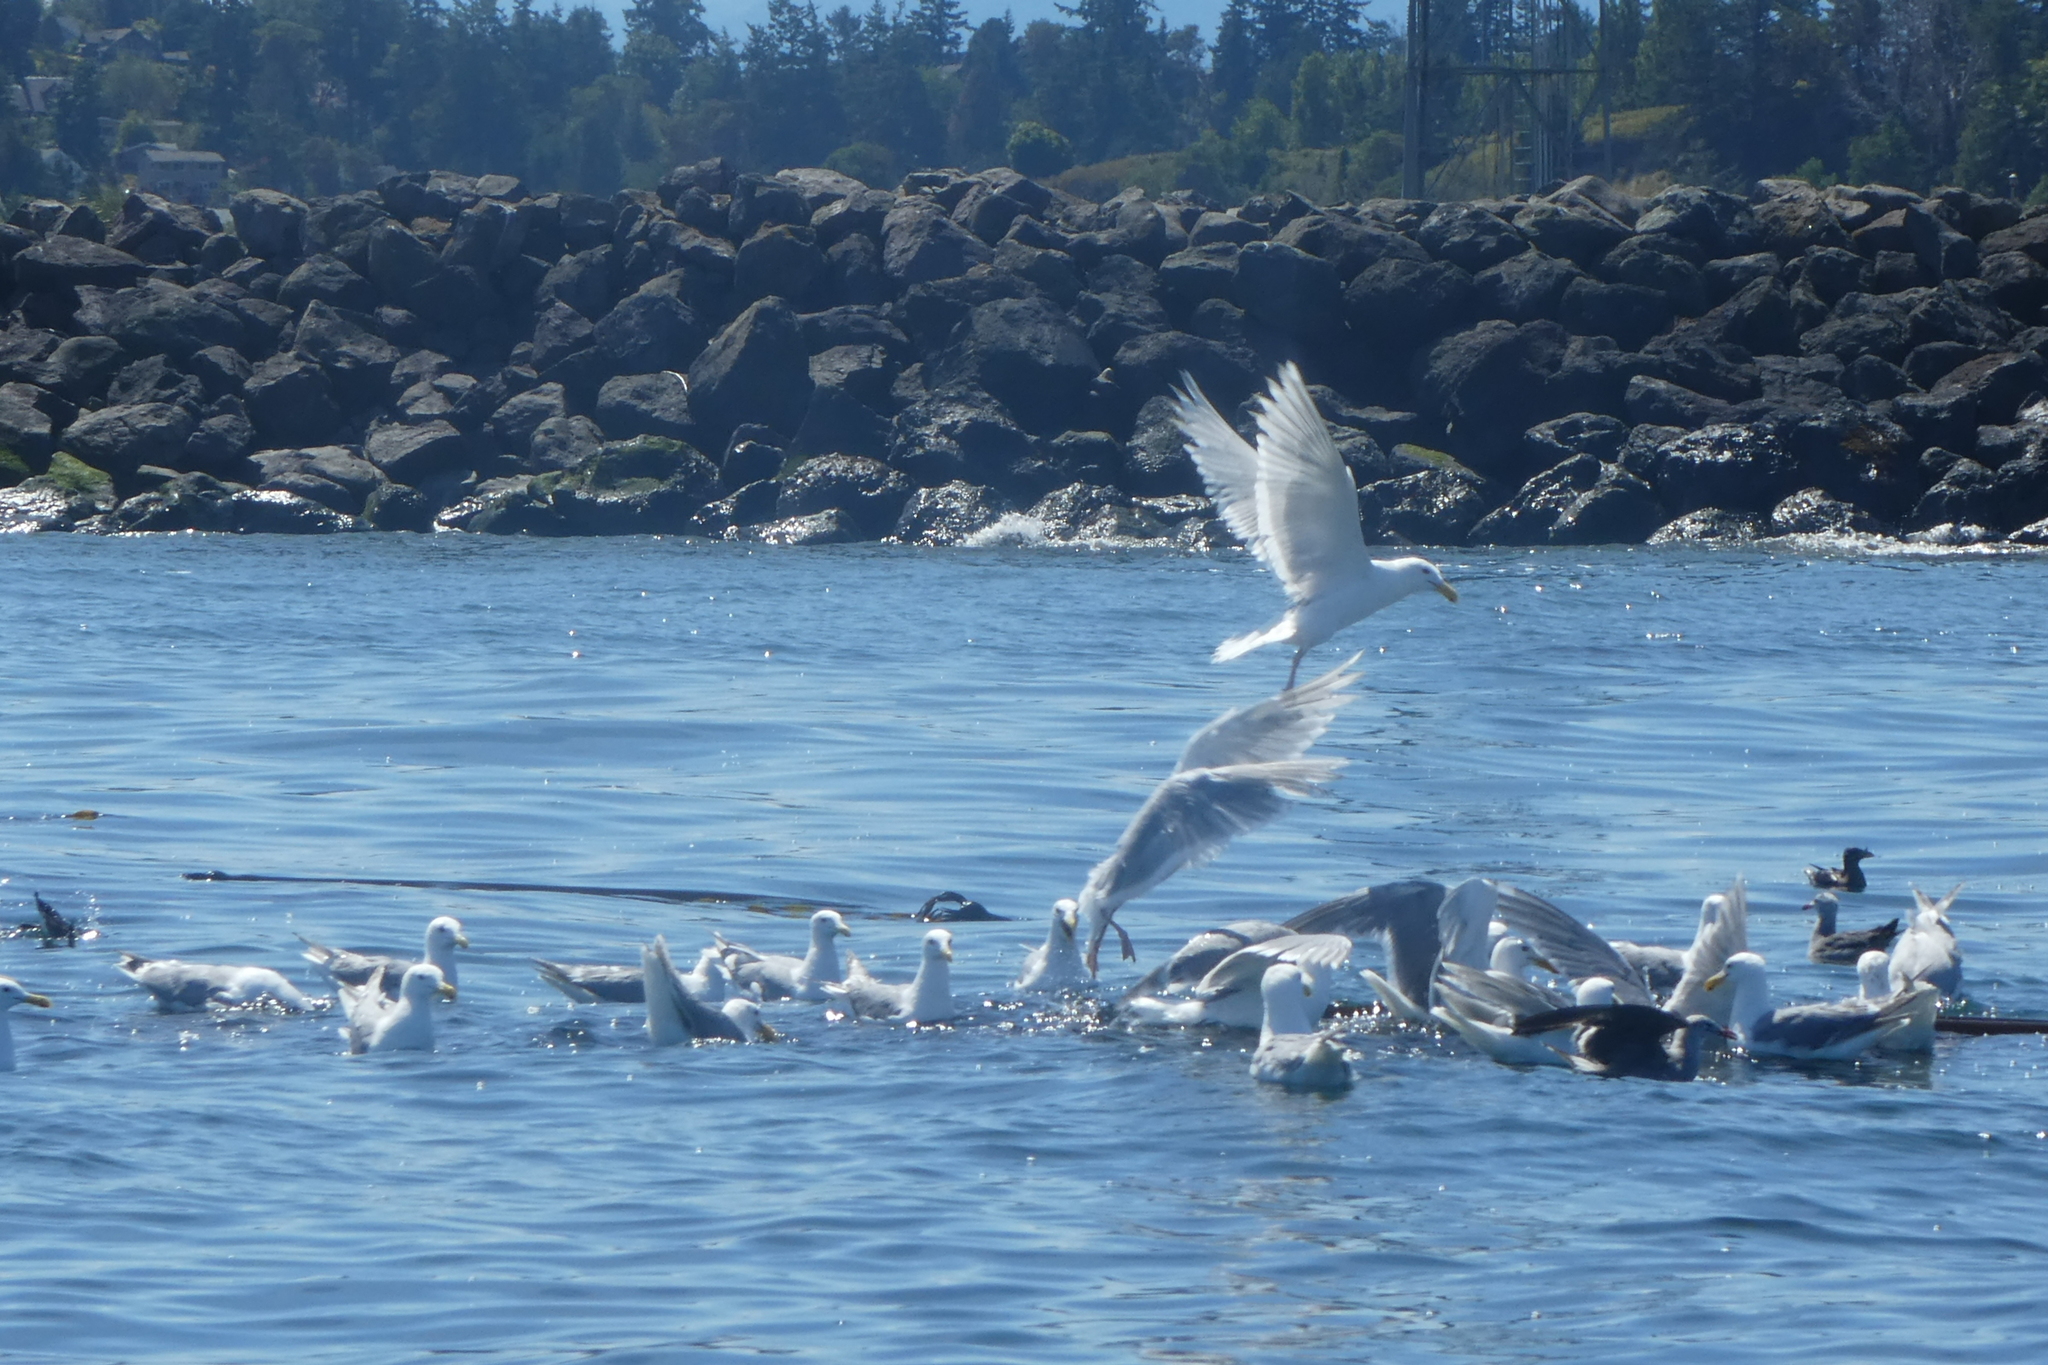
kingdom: Animalia
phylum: Chordata
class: Aves
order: Charadriiformes
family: Laridae
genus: Larus
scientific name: Larus heermanni
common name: Heermann's gull
